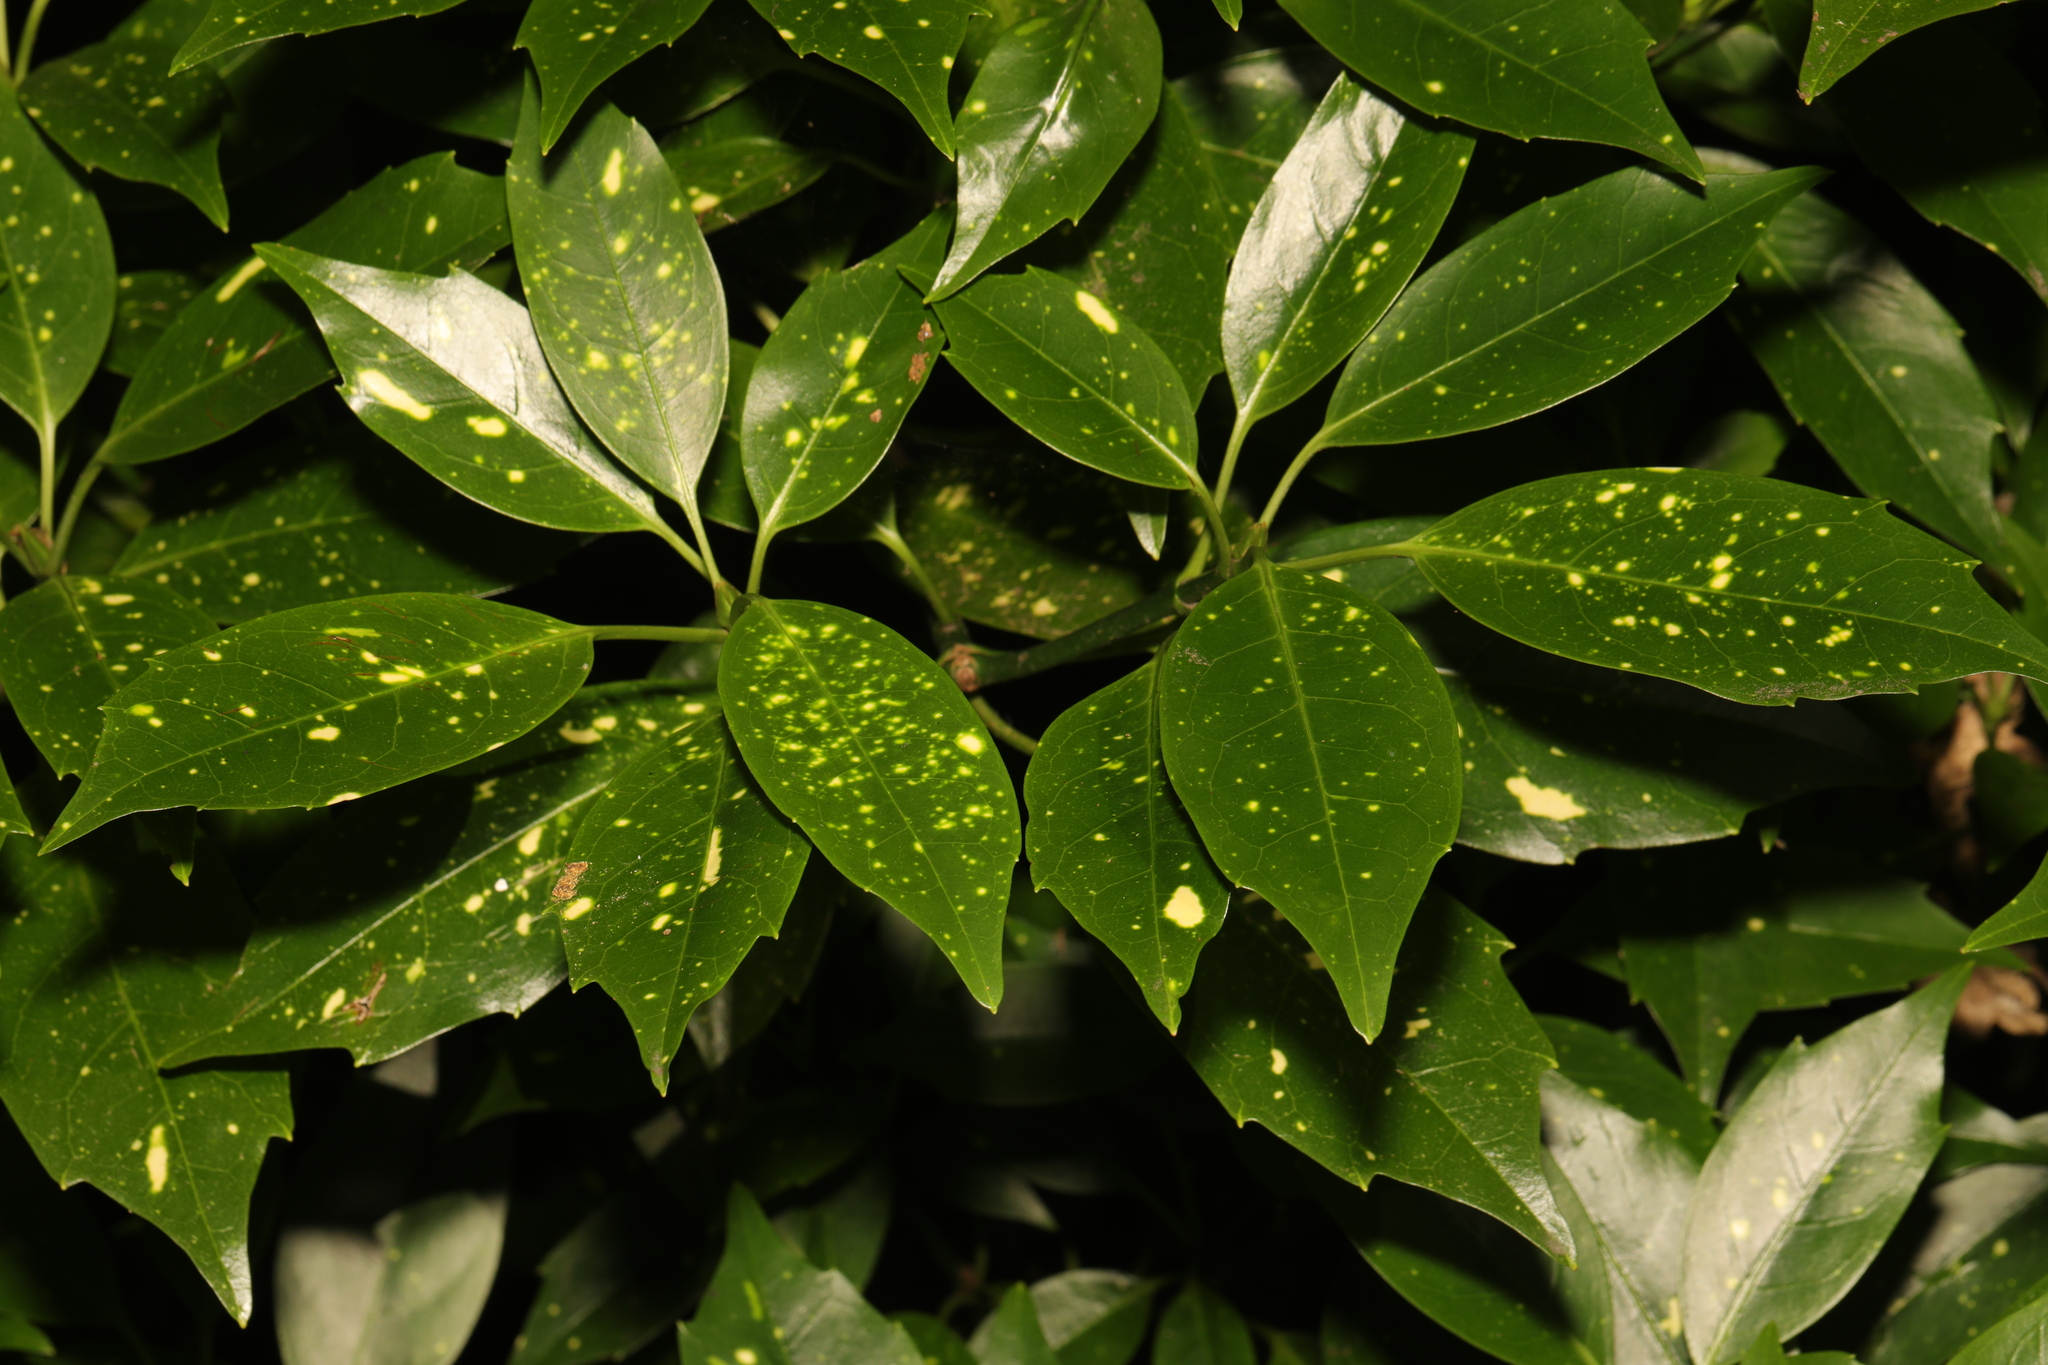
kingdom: Plantae
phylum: Tracheophyta
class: Magnoliopsida
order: Garryales
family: Garryaceae
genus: Aucuba
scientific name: Aucuba japonica
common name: Spotted-laurel
